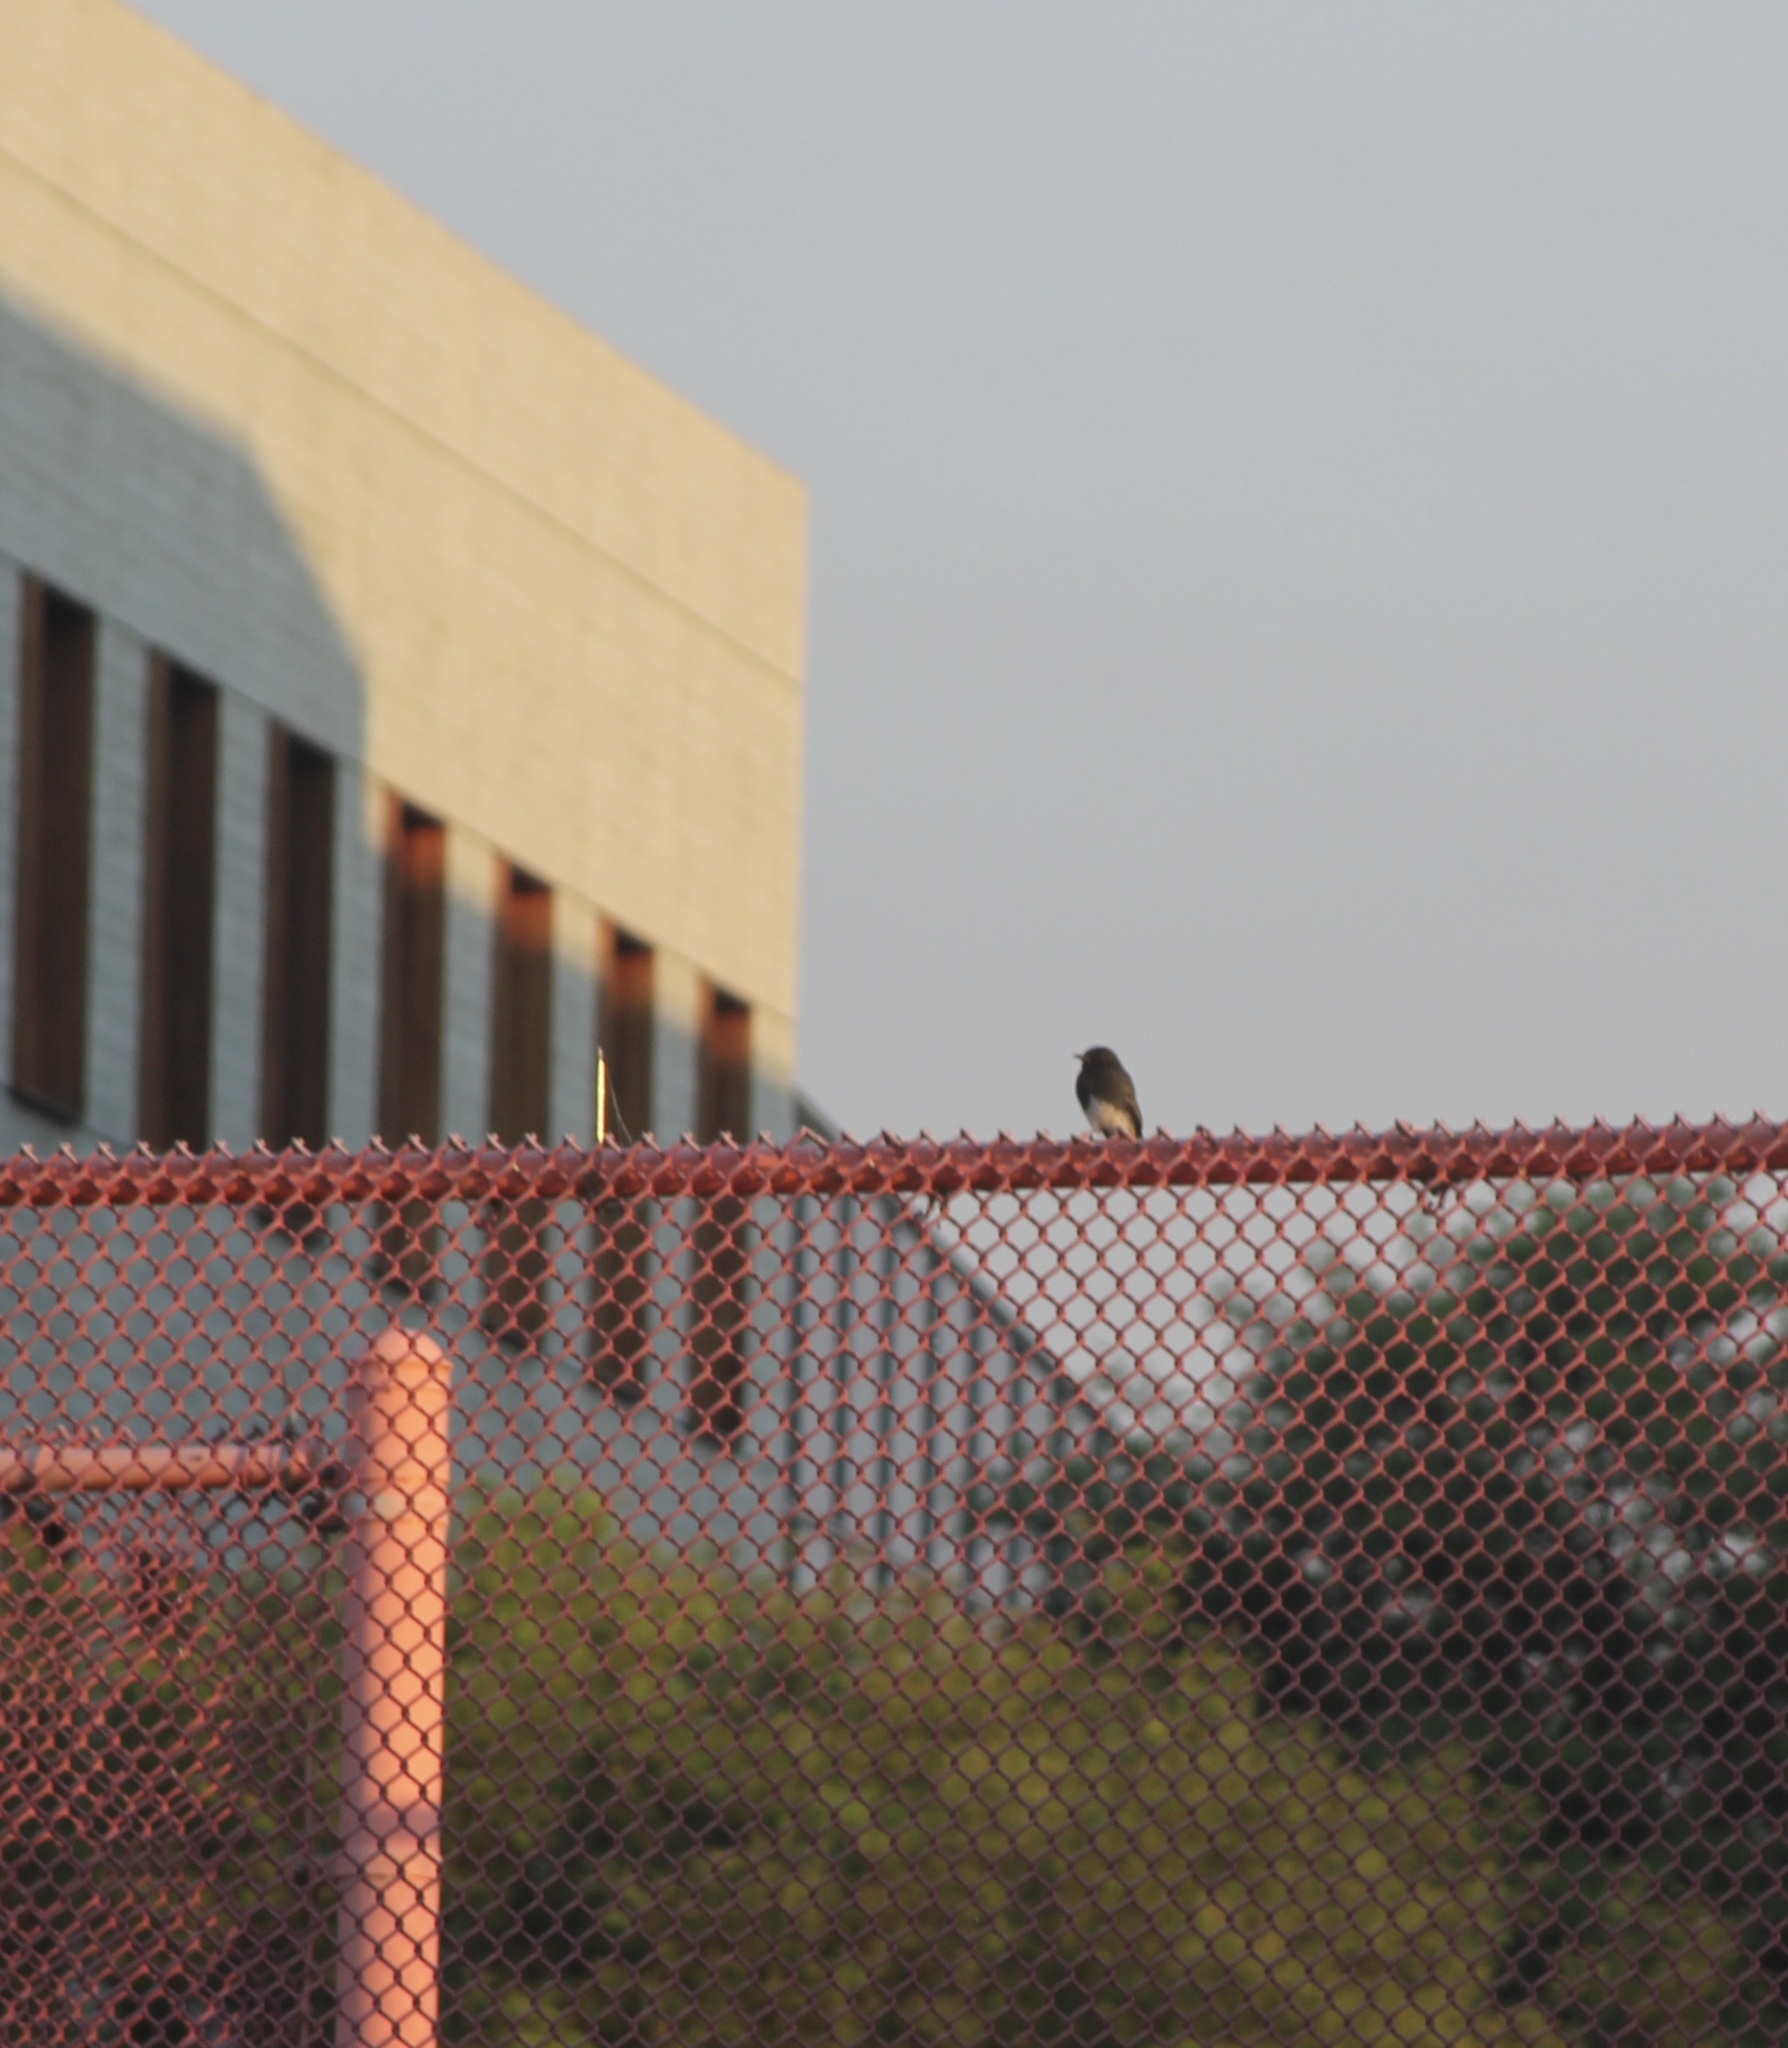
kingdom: Animalia
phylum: Chordata
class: Aves
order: Passeriformes
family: Tyrannidae
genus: Sayornis
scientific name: Sayornis nigricans
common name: Black phoebe
